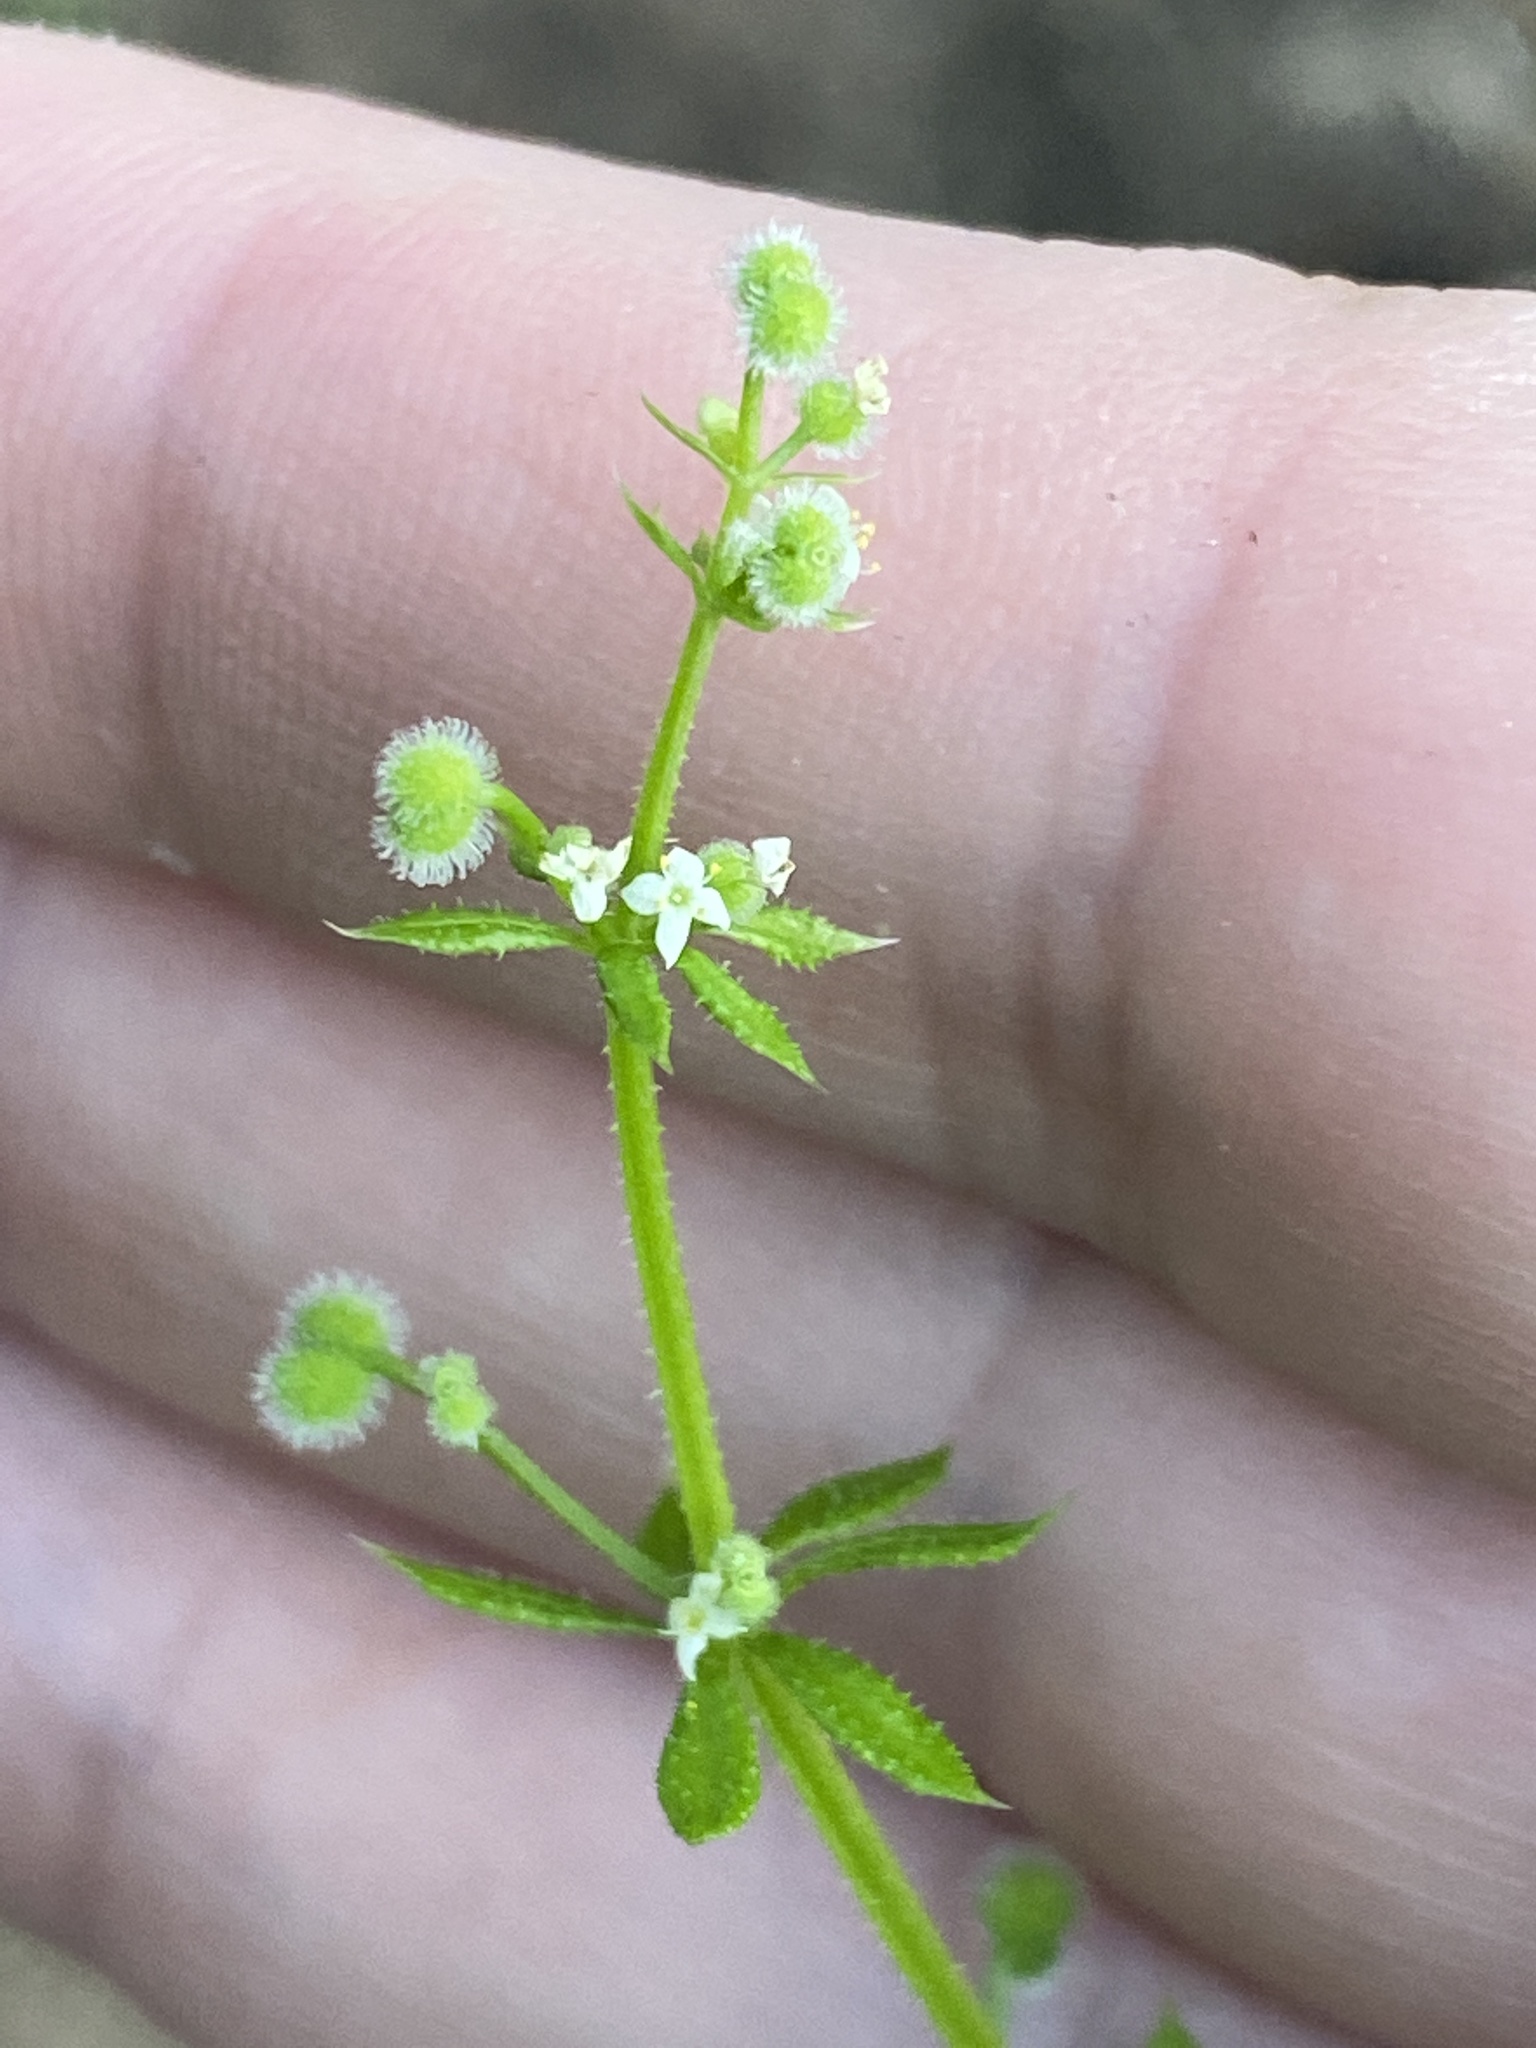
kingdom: Plantae
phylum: Tracheophyta
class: Magnoliopsida
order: Gentianales
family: Rubiaceae
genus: Galium
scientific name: Galium aparine
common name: Cleavers
